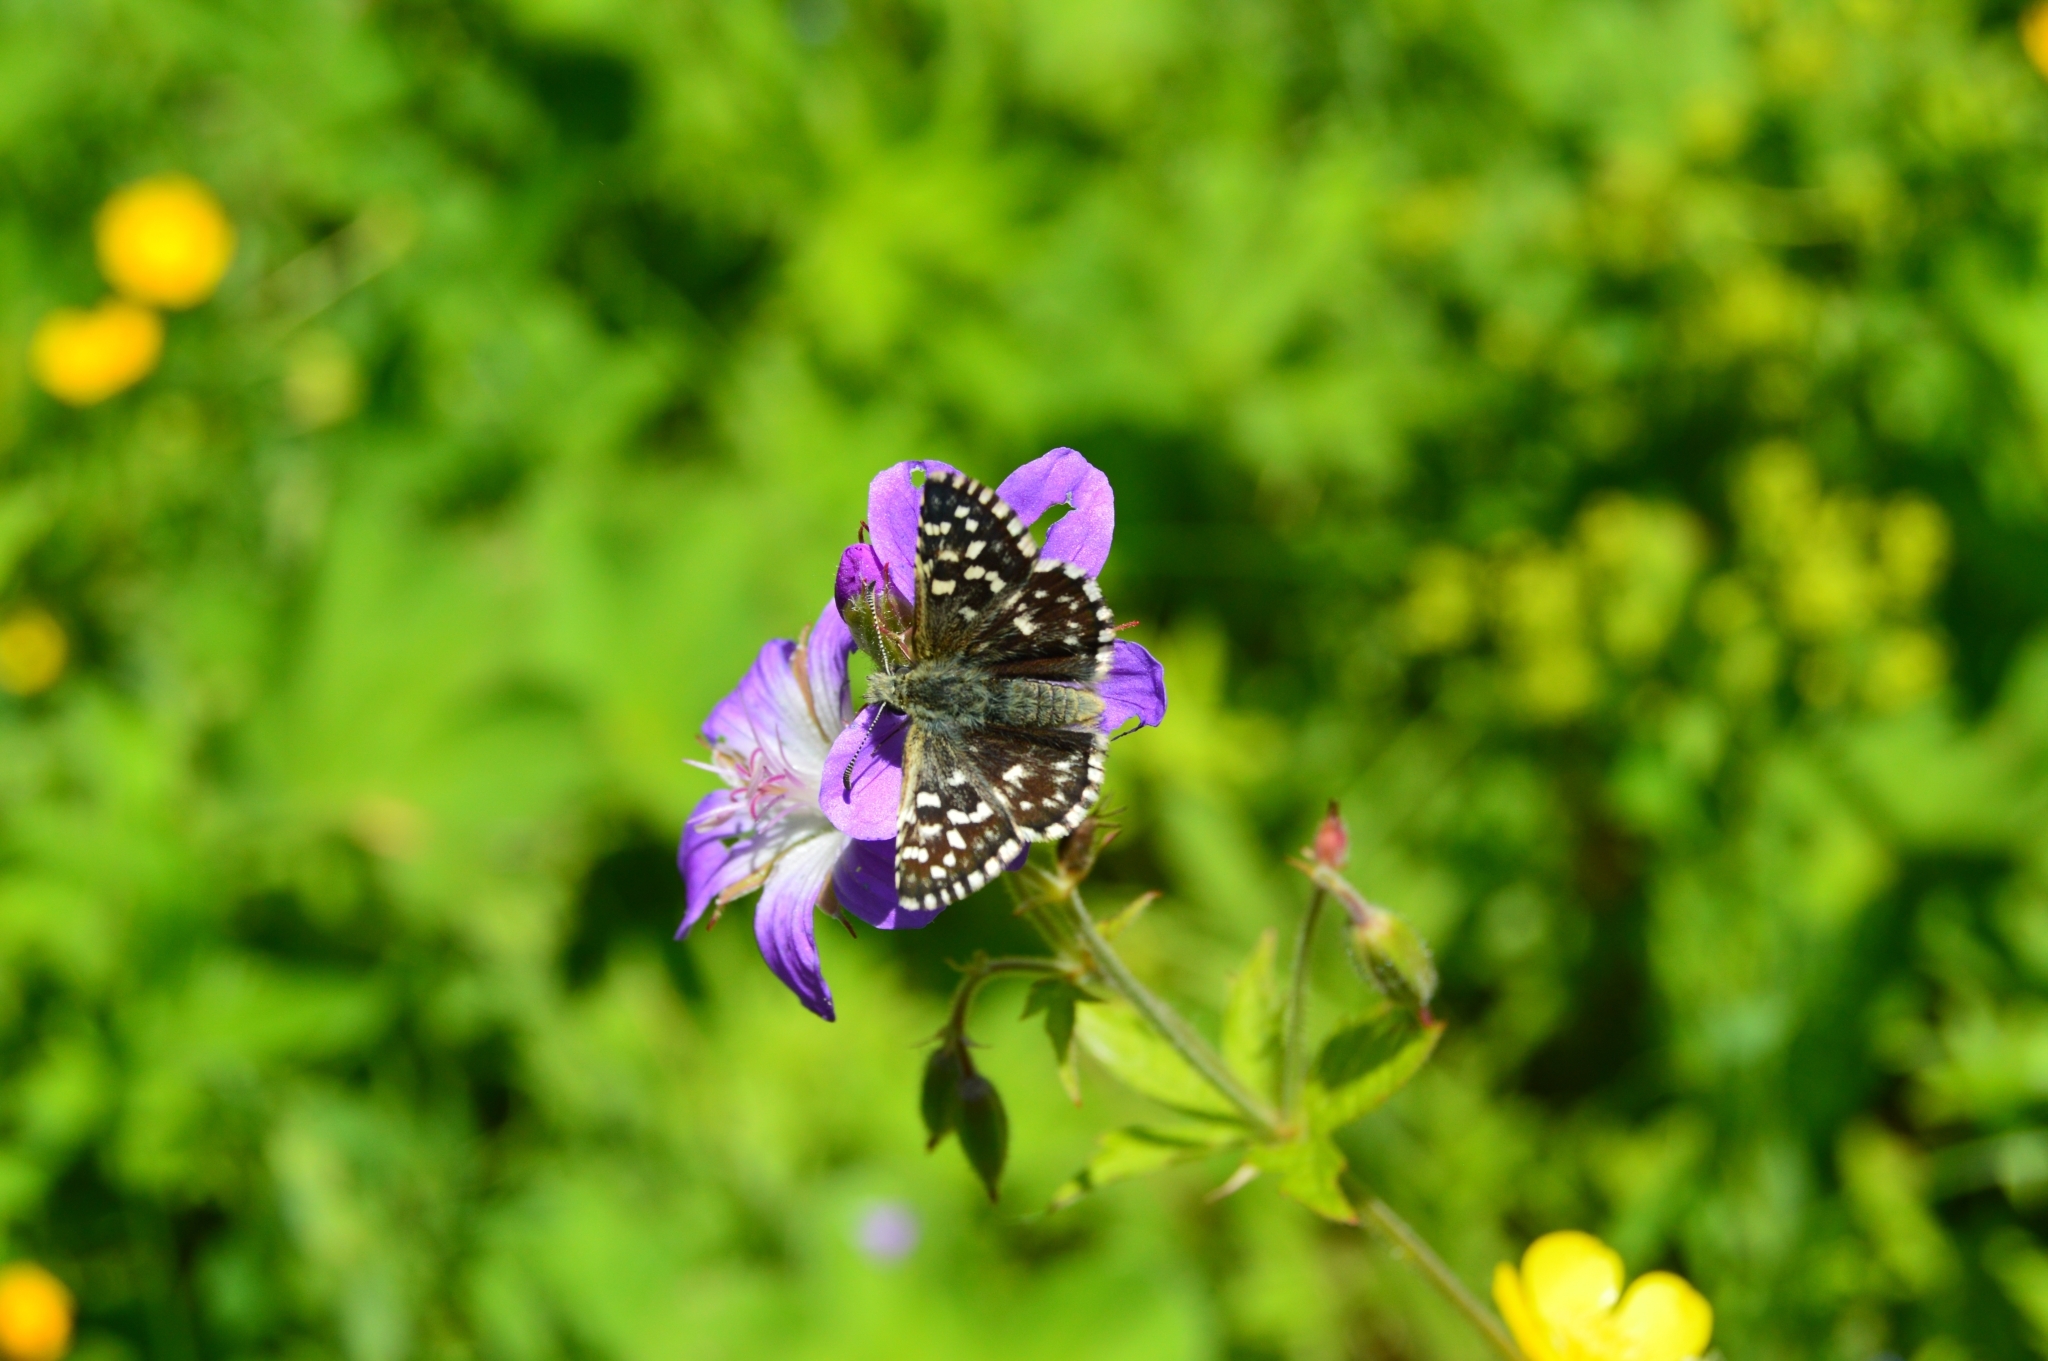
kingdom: Animalia
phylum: Arthropoda
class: Insecta
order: Lepidoptera
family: Hesperiidae
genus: Pyrgus
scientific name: Pyrgus malvae
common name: Grizzled skipper
